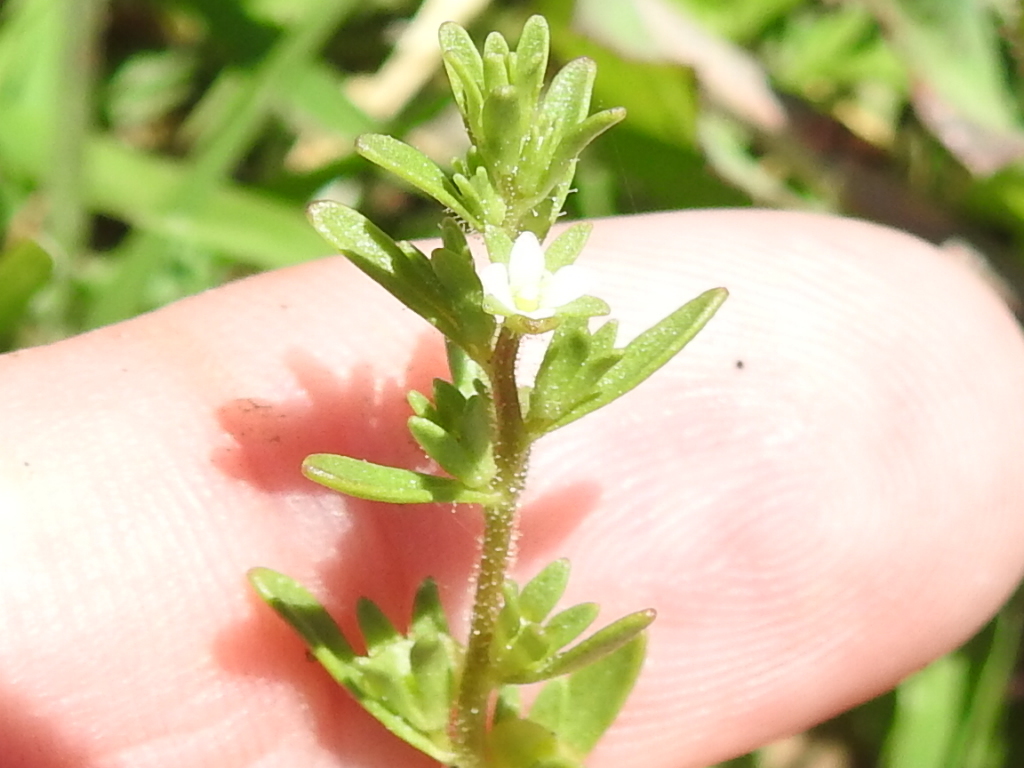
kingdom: Plantae
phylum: Tracheophyta
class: Magnoliopsida
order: Lamiales
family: Plantaginaceae
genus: Veronica
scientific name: Veronica peregrina
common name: Neckweed
